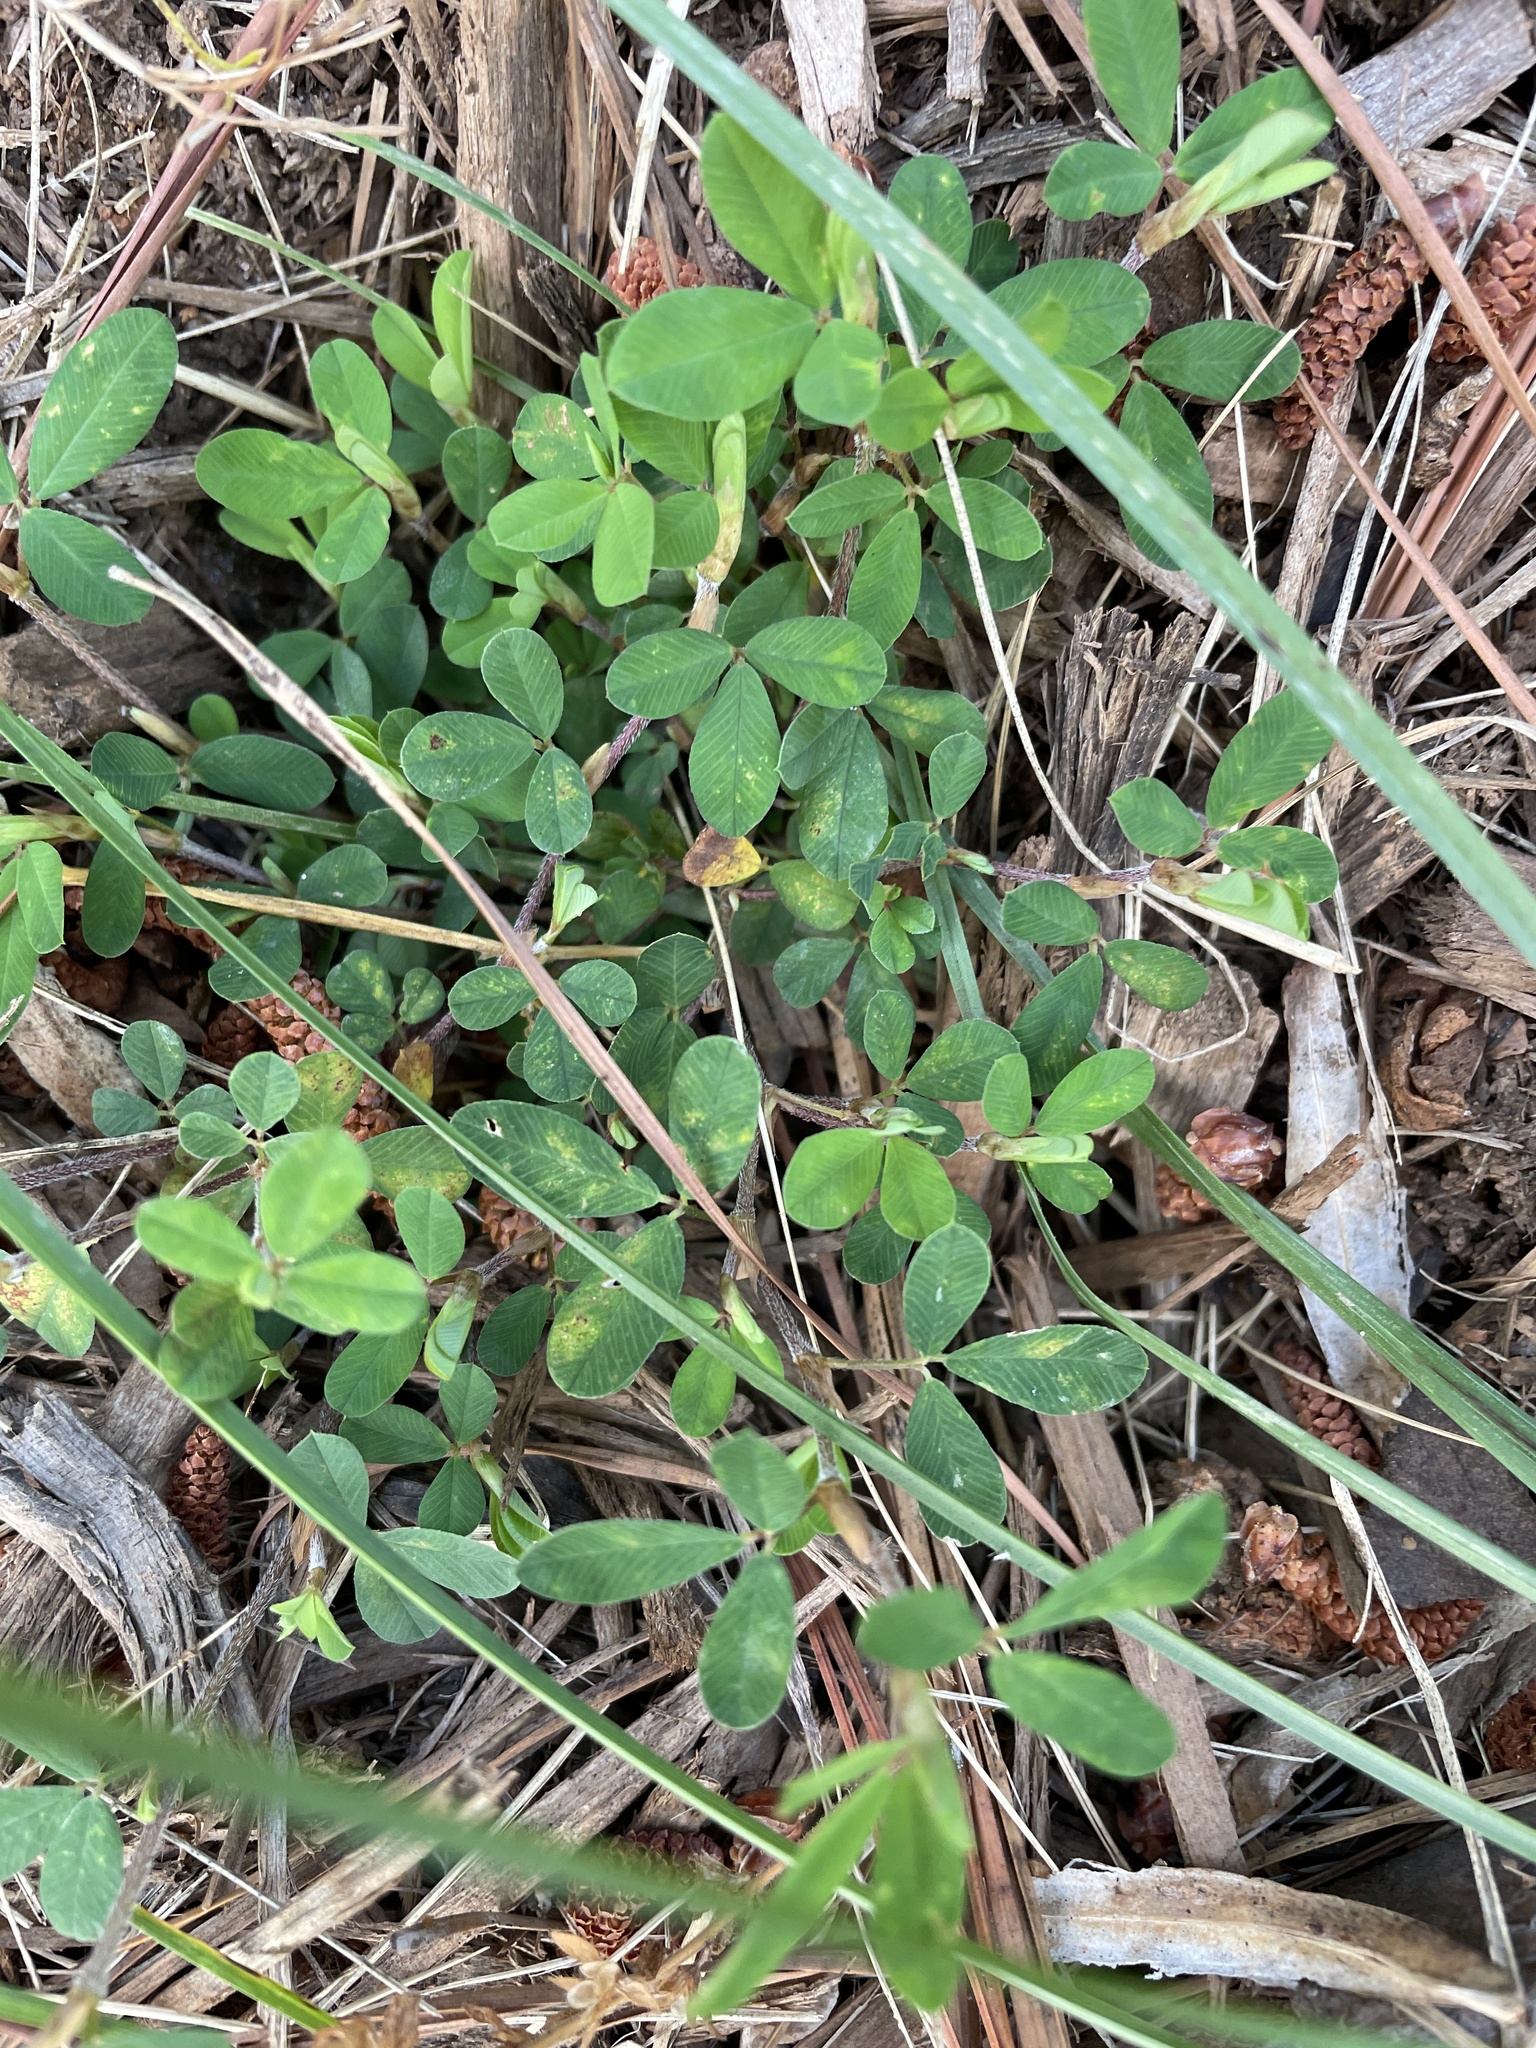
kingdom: Plantae
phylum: Tracheophyta
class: Magnoliopsida
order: Fabales
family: Fabaceae
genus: Kummerowia
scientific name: Kummerowia striata
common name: Japanese clover
